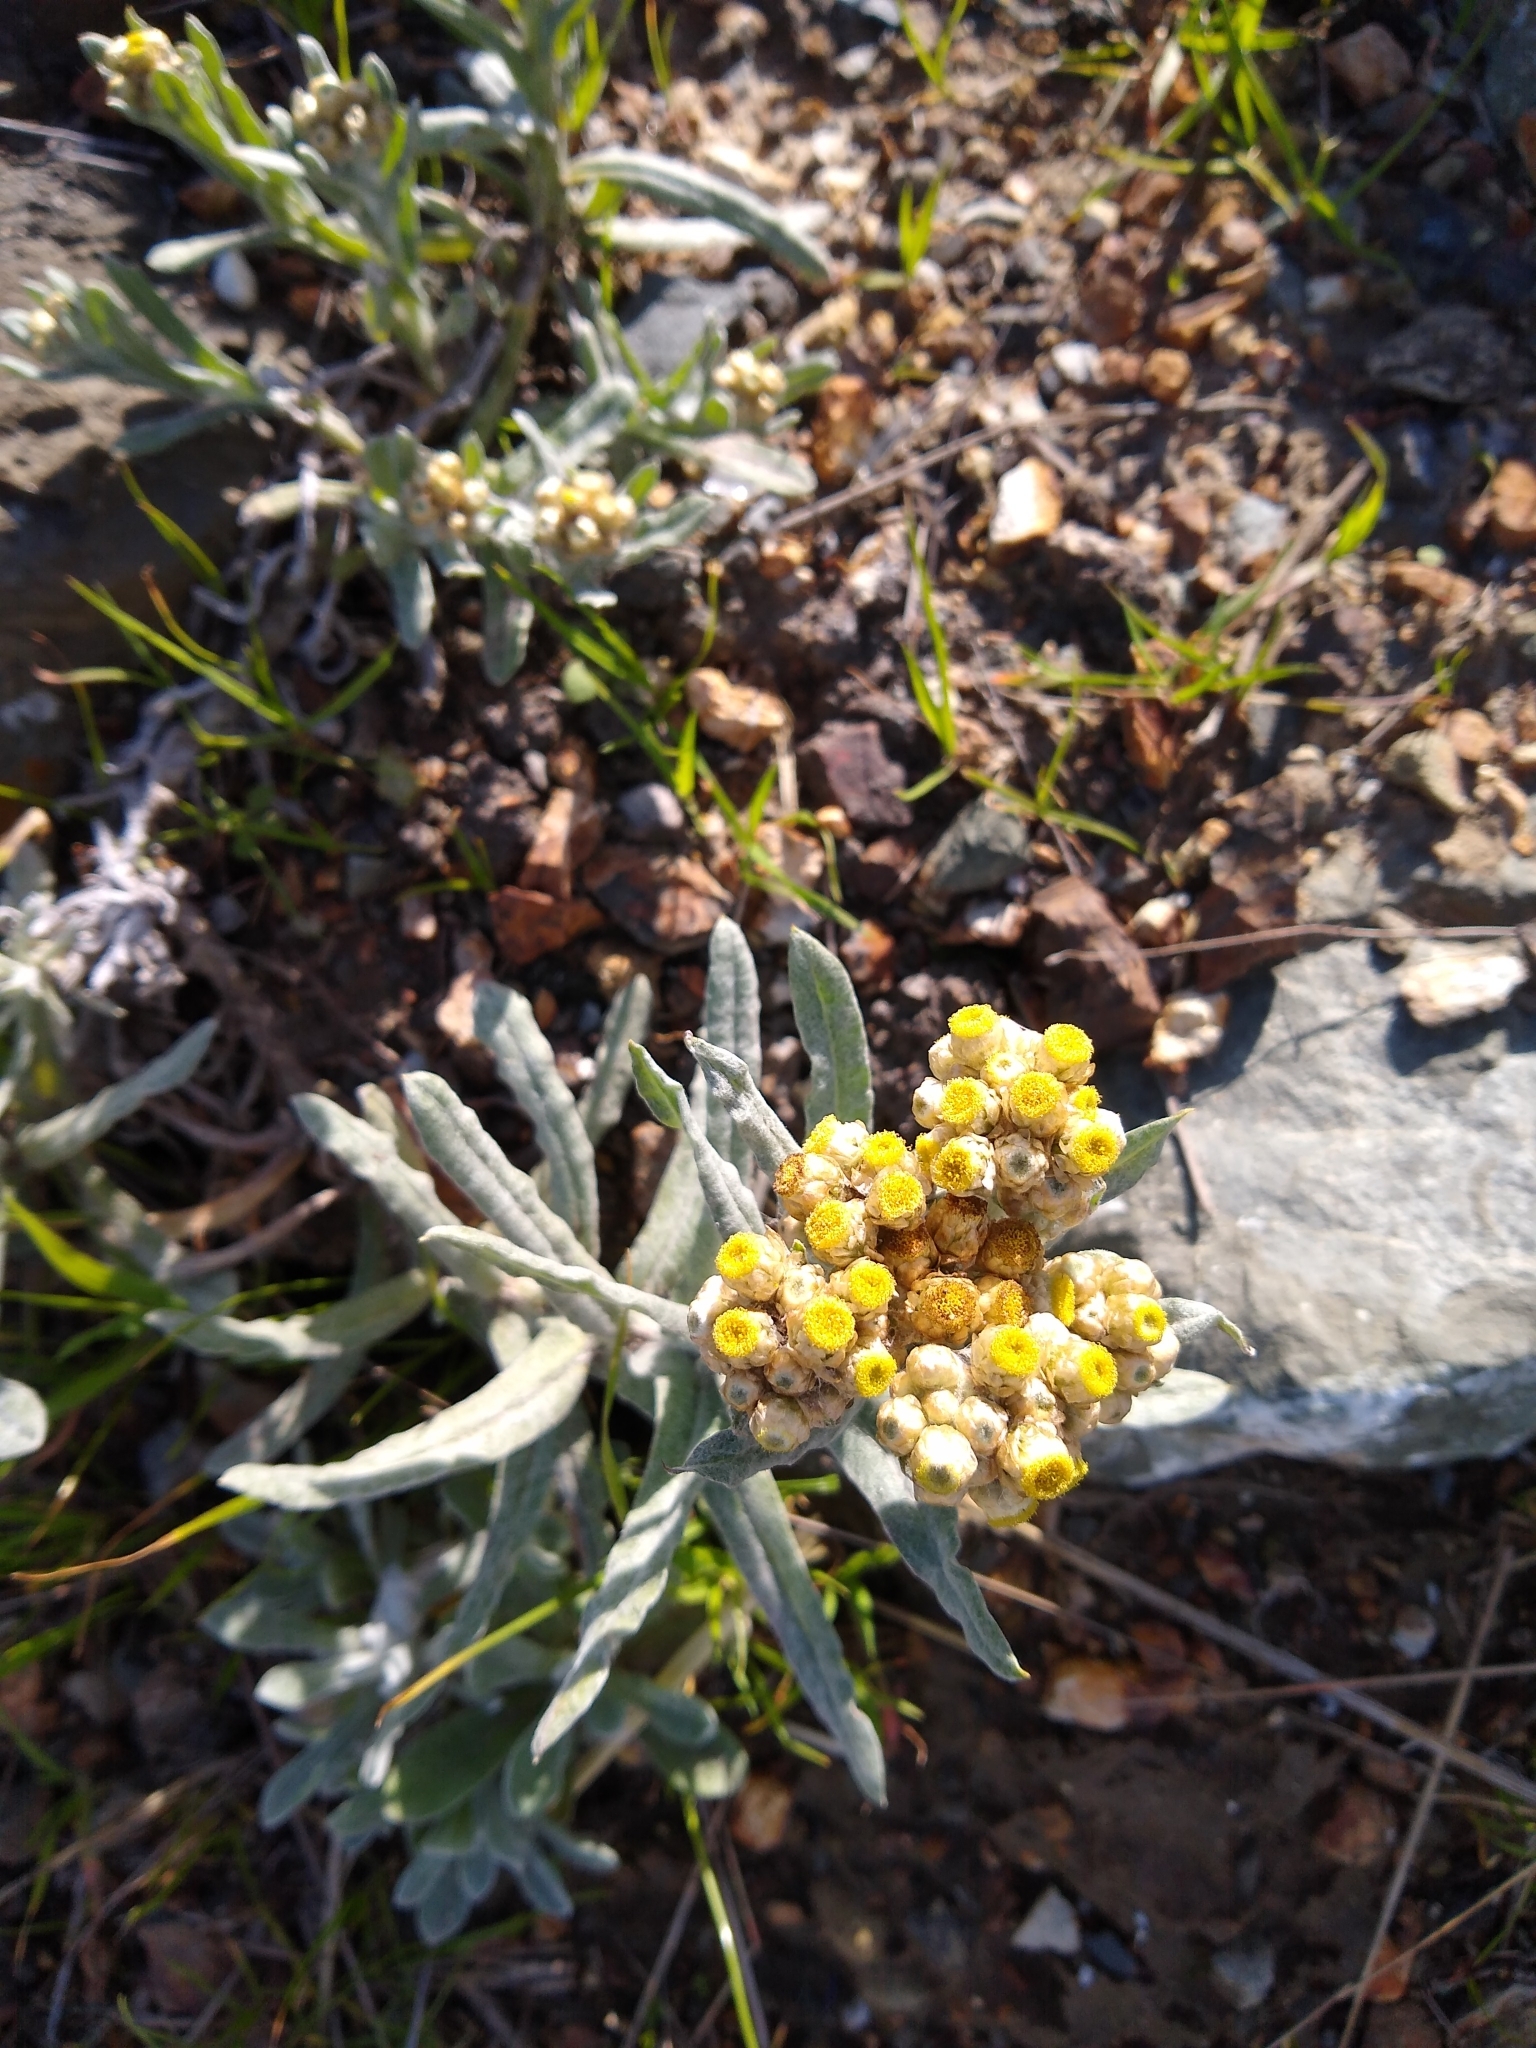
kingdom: Plantae
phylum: Tracheophyta
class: Magnoliopsida
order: Asterales
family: Asteraceae
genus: Pseudognaphalium
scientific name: Pseudognaphalium stramineum
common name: Cotton-batting-plant
